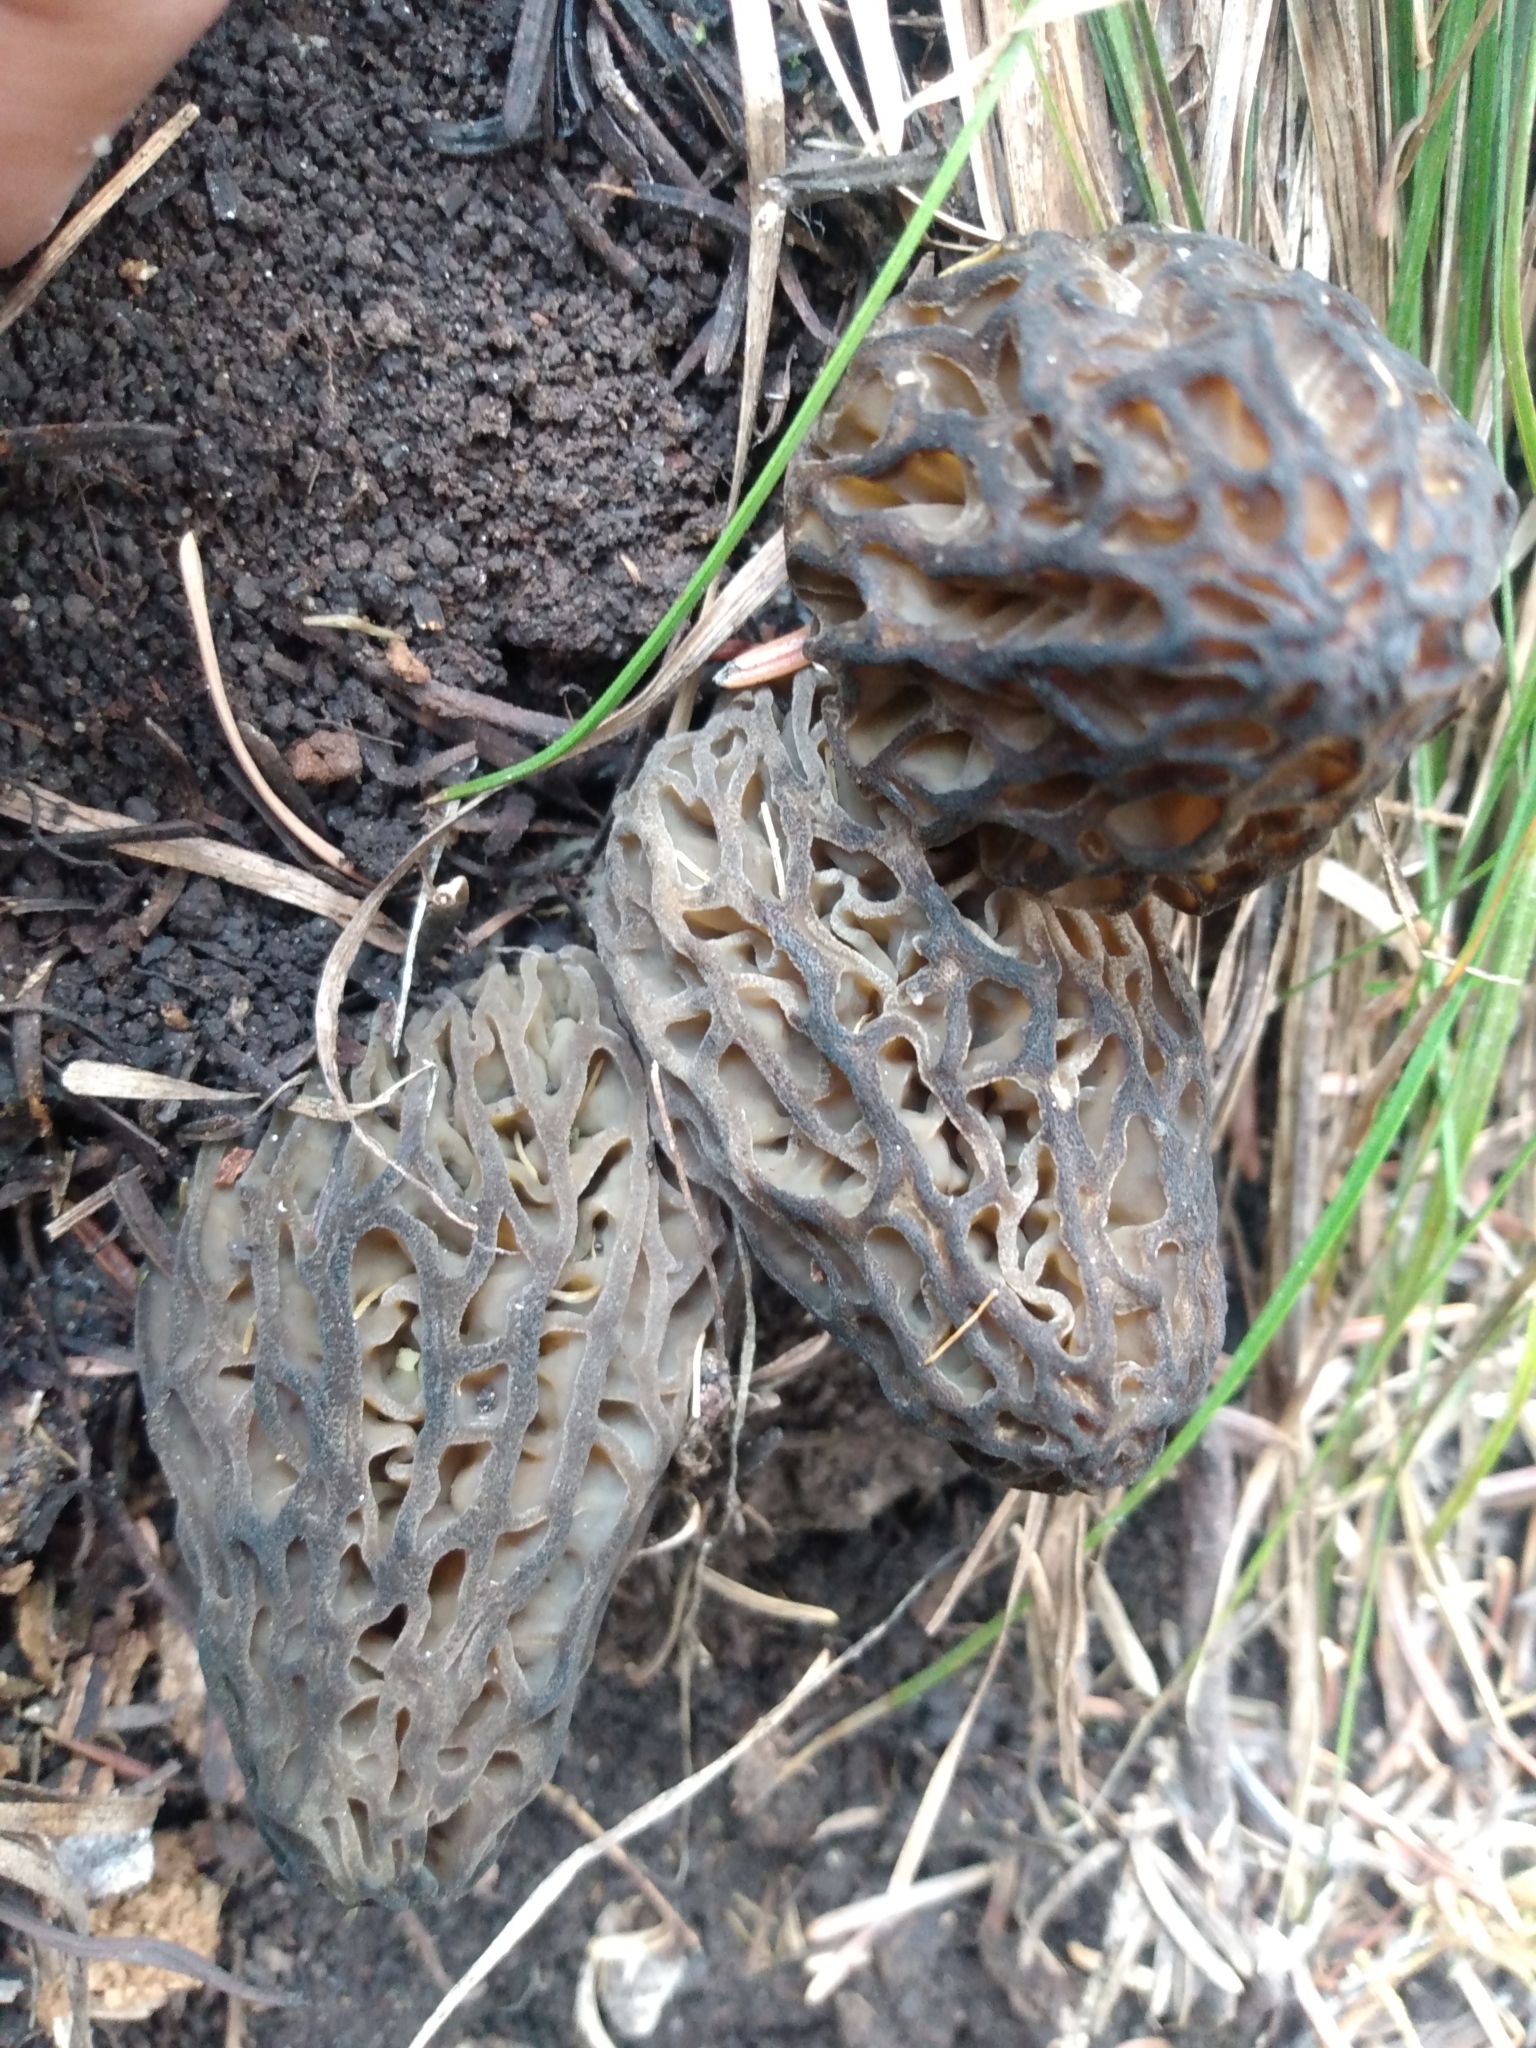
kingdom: Fungi
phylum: Ascomycota
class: Pezizomycetes
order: Pezizales
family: Morchellaceae
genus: Morchella
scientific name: Morchella snyderi
